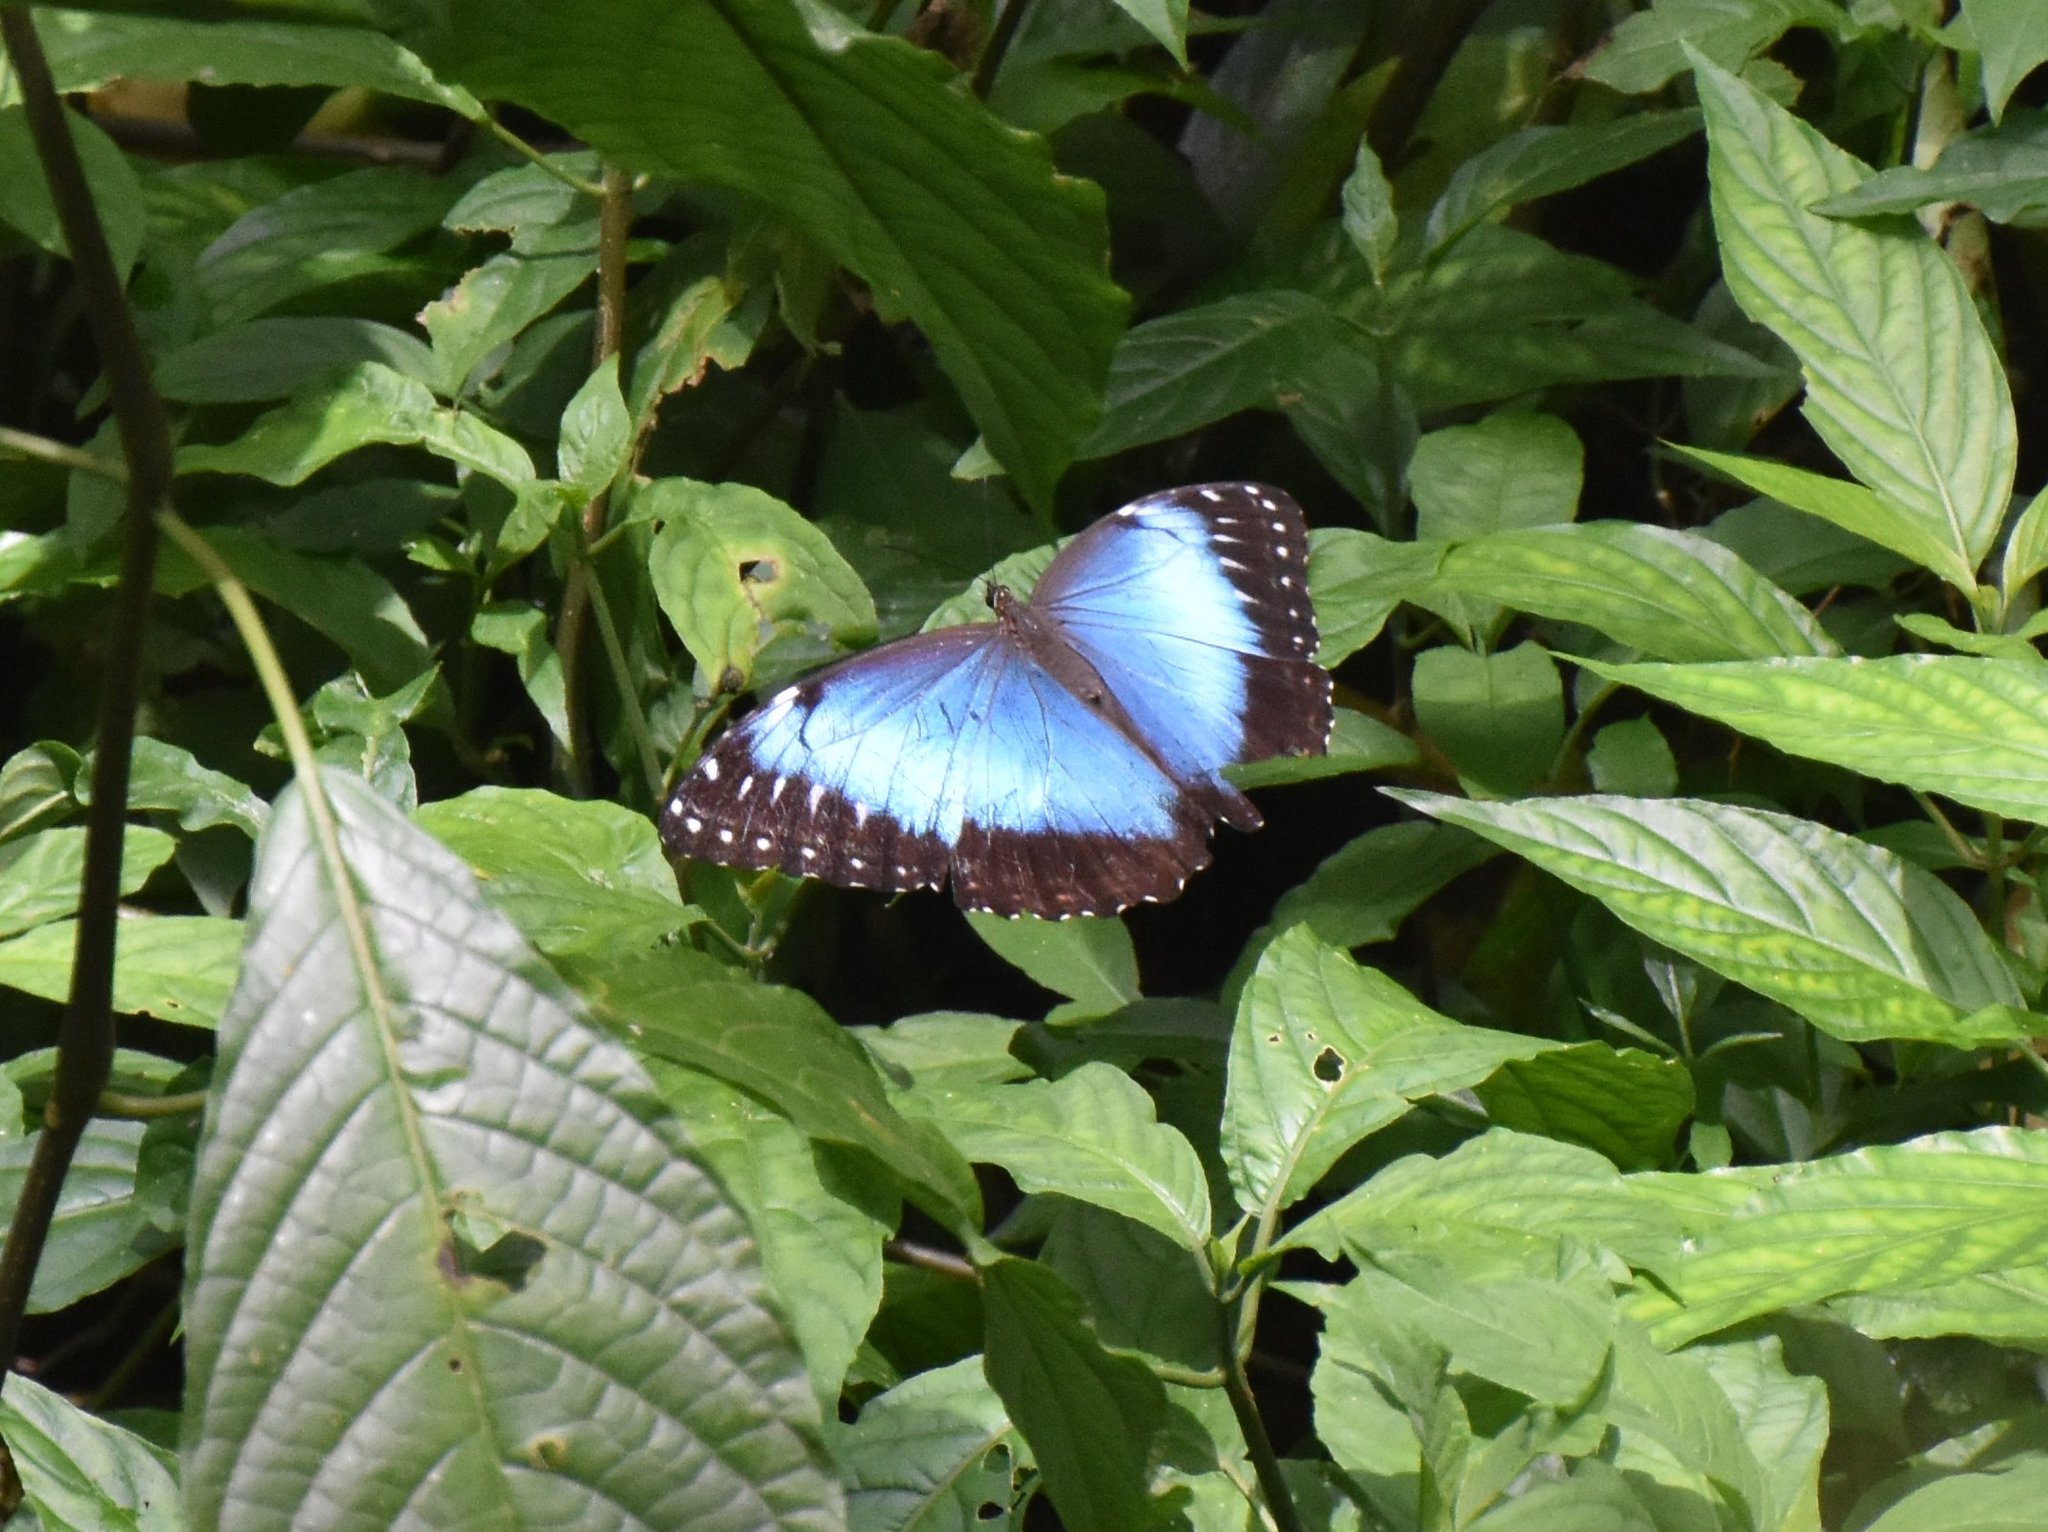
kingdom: Animalia
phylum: Arthropoda
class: Insecta
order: Lepidoptera
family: Nymphalidae
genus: Morpho
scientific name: Morpho helenor
